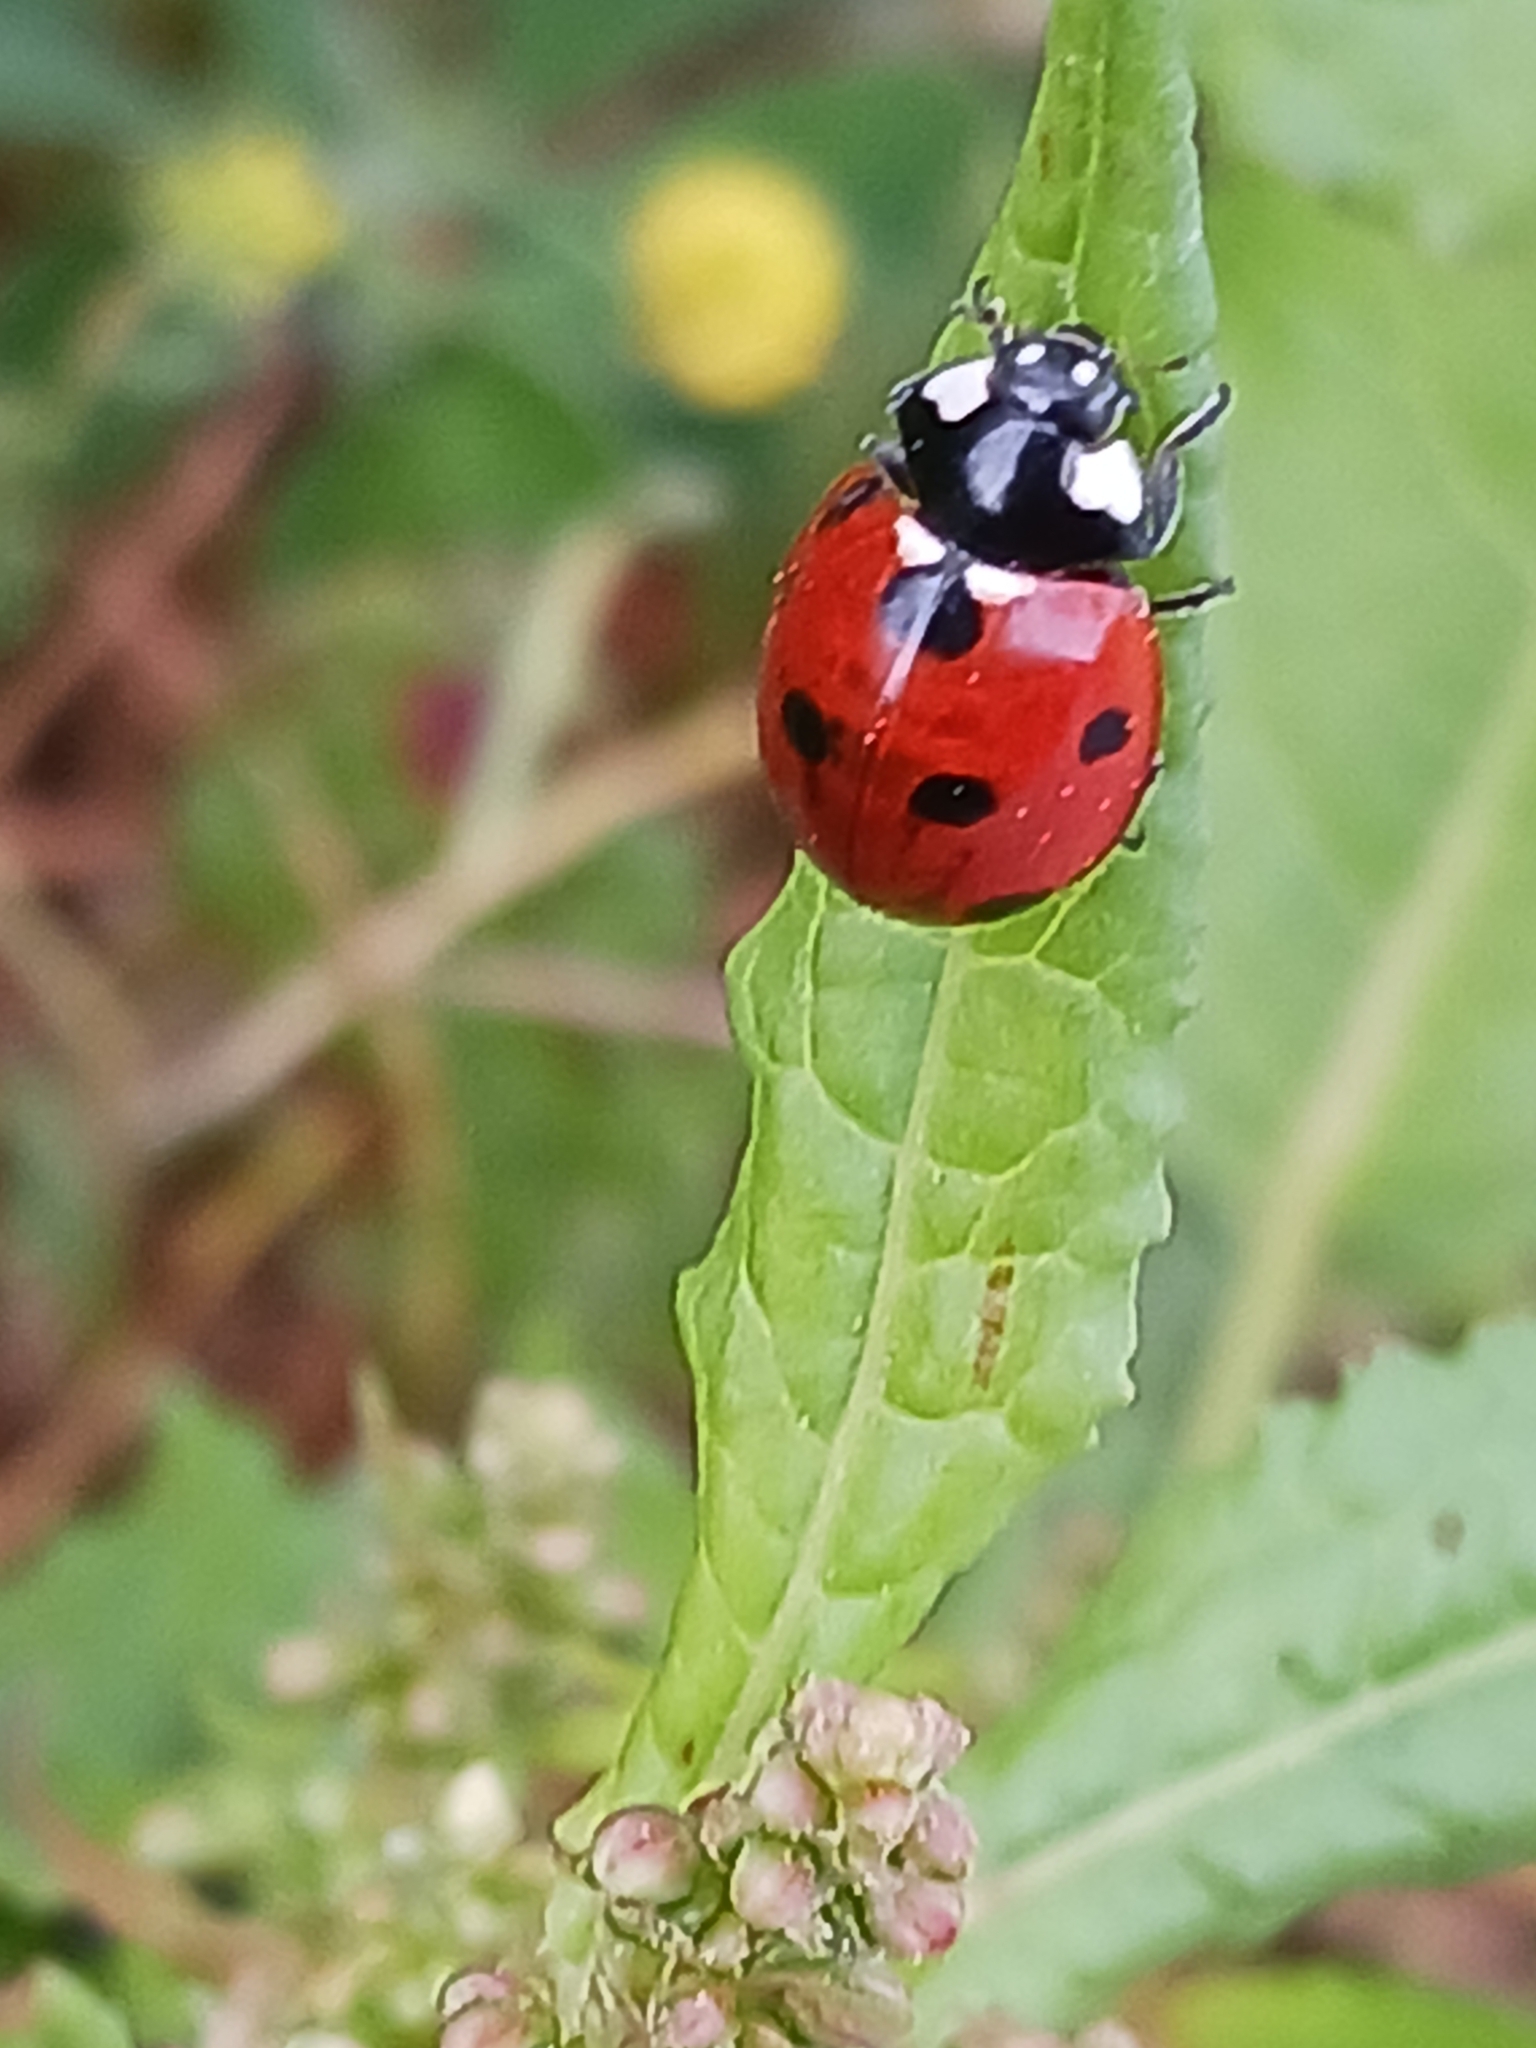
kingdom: Animalia
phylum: Arthropoda
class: Insecta
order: Coleoptera
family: Coccinellidae
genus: Coccinella
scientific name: Coccinella septempunctata
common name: Sevenspotted lady beetle
